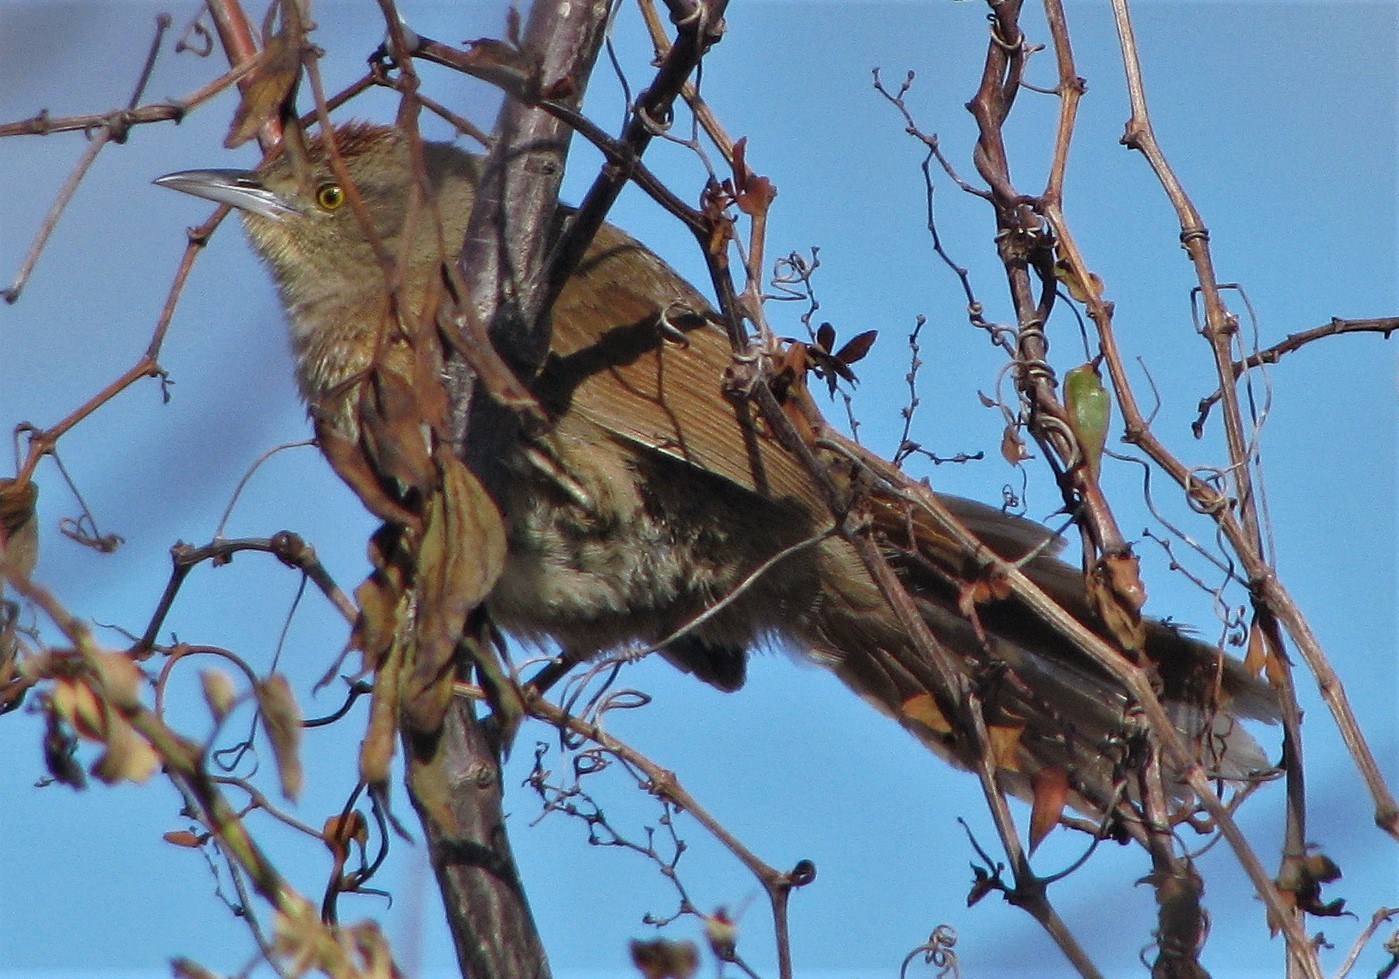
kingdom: Animalia
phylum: Chordata
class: Aves
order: Passeriformes
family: Furnariidae
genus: Phacellodomus
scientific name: Phacellodomus striaticollis
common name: Freckle-breasted thornbird
